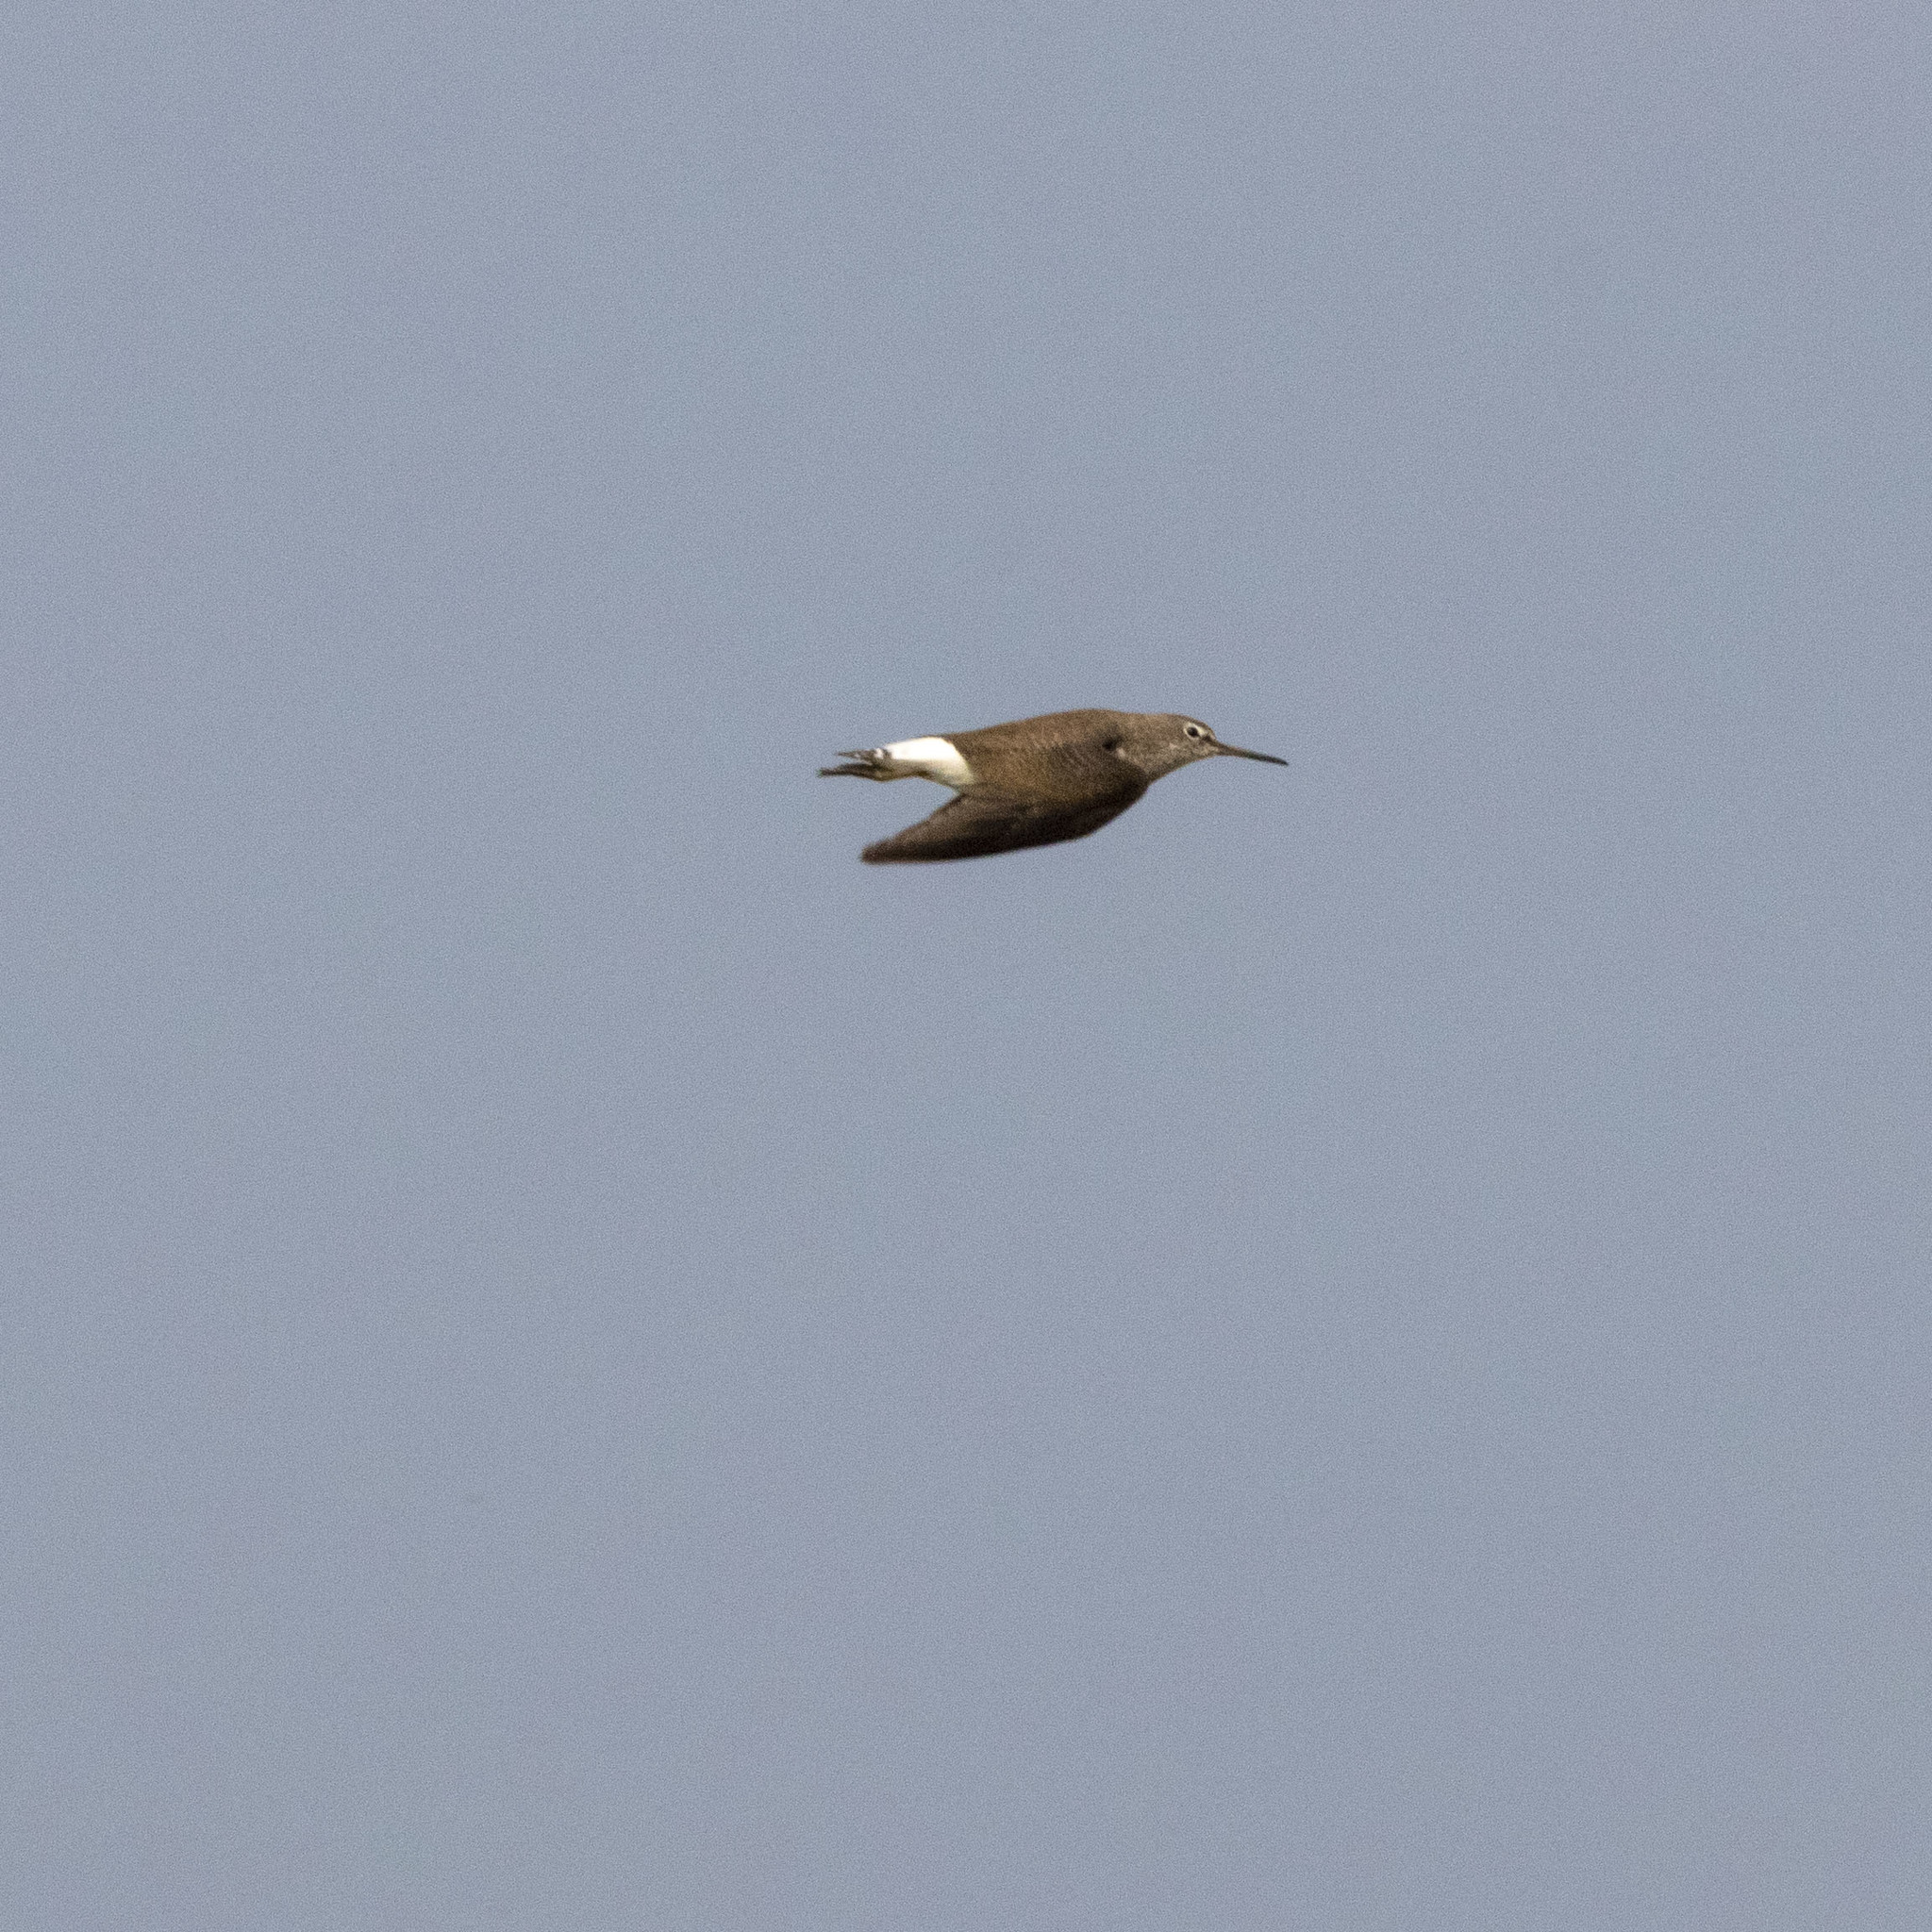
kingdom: Animalia
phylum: Chordata
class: Aves
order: Charadriiformes
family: Scolopacidae
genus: Tringa
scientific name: Tringa ochropus
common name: Green sandpiper
